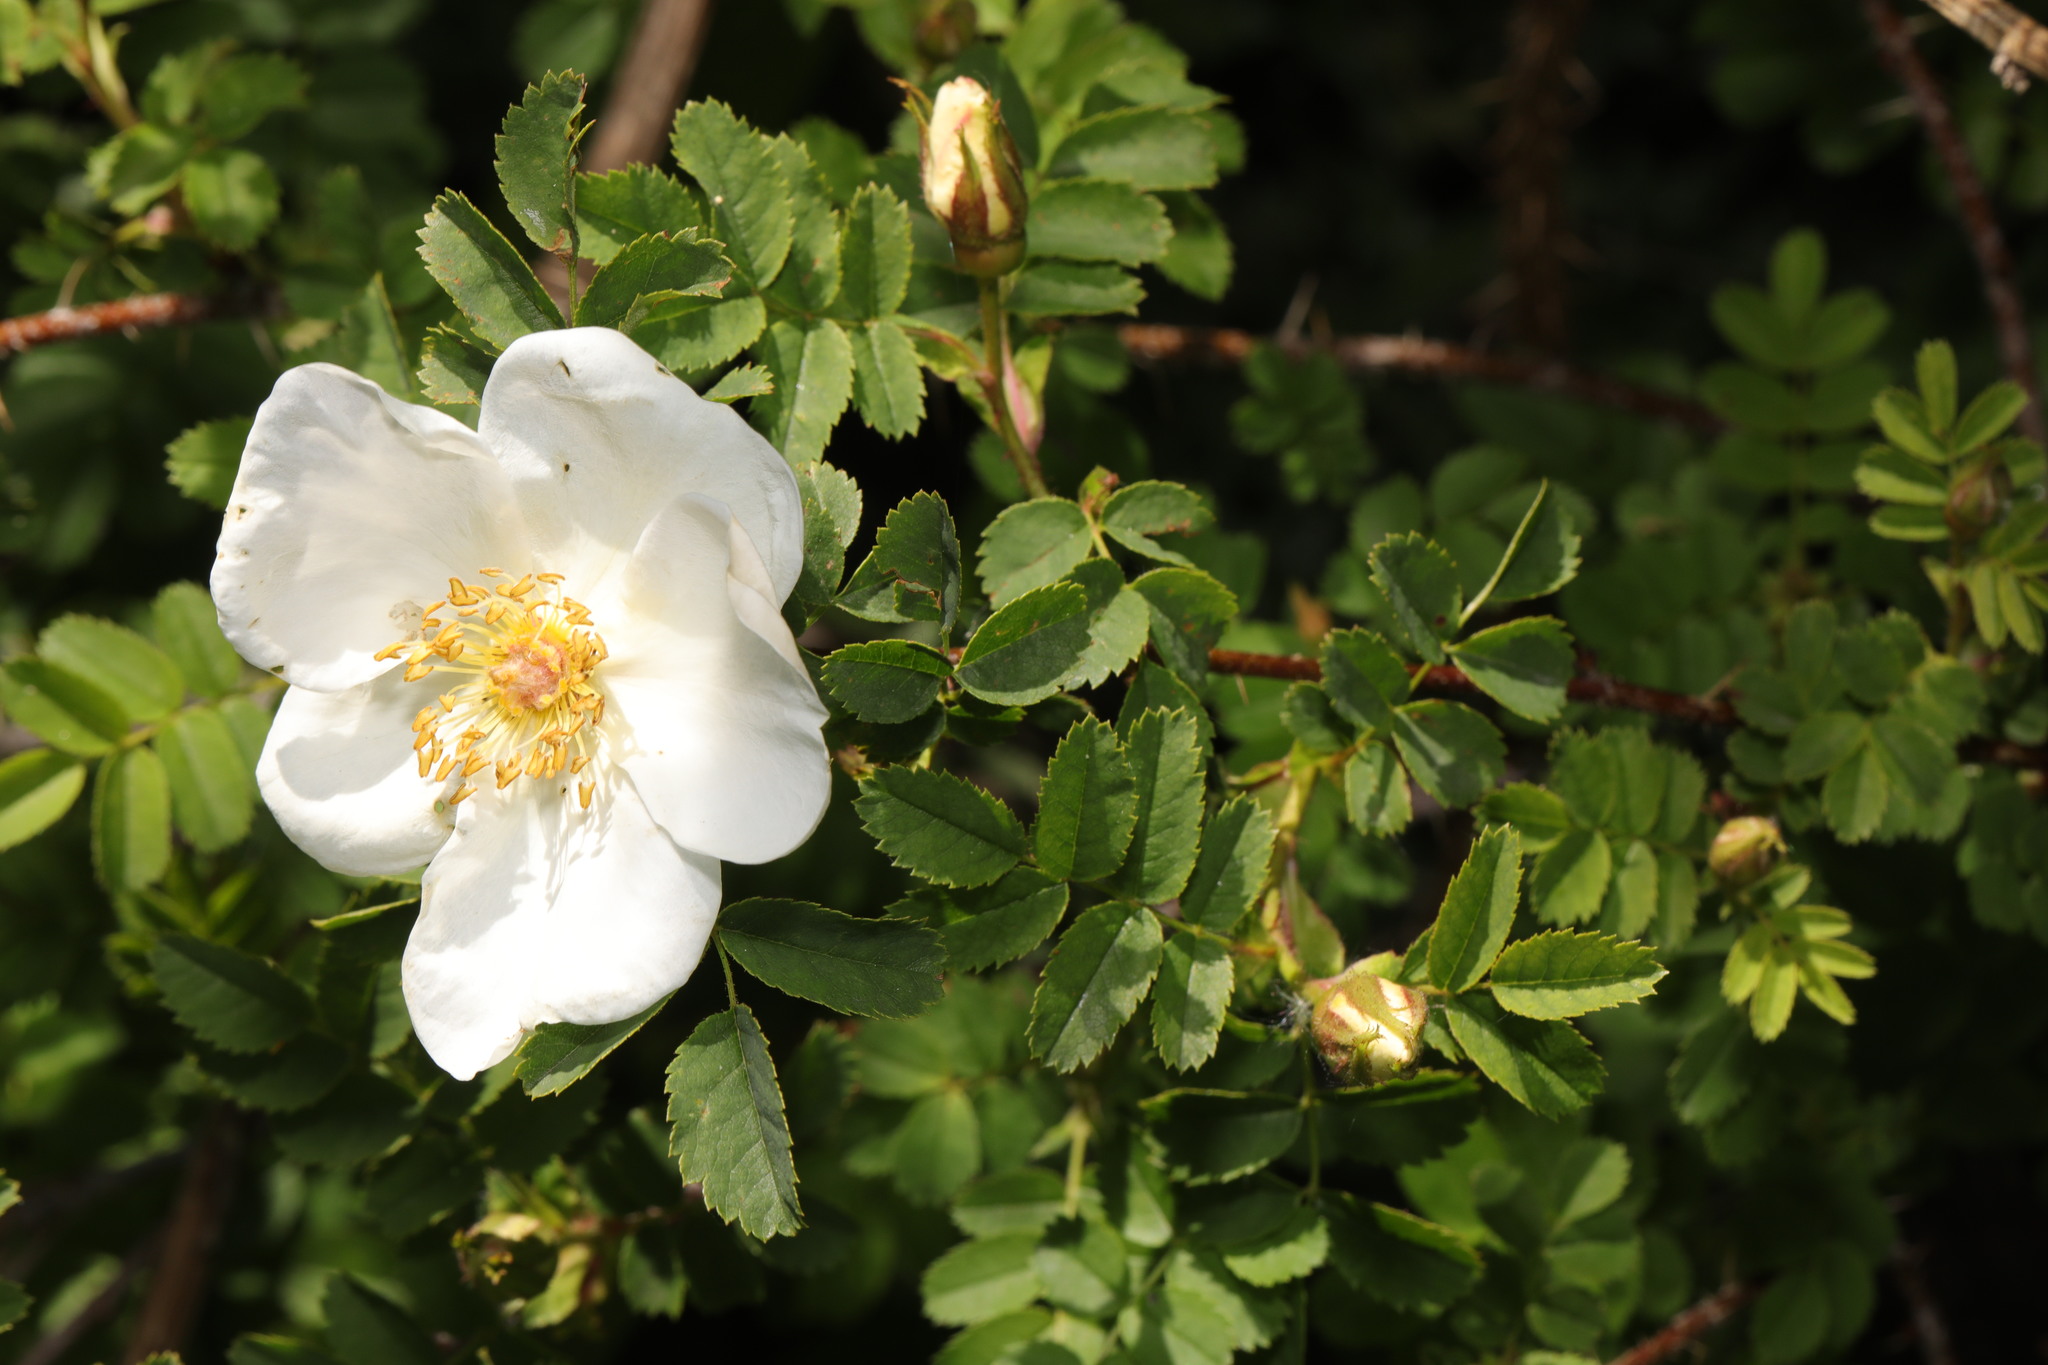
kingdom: Plantae
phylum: Tracheophyta
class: Magnoliopsida
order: Rosales
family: Rosaceae
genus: Rosa
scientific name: Rosa spinosissima
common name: Burnet rose
